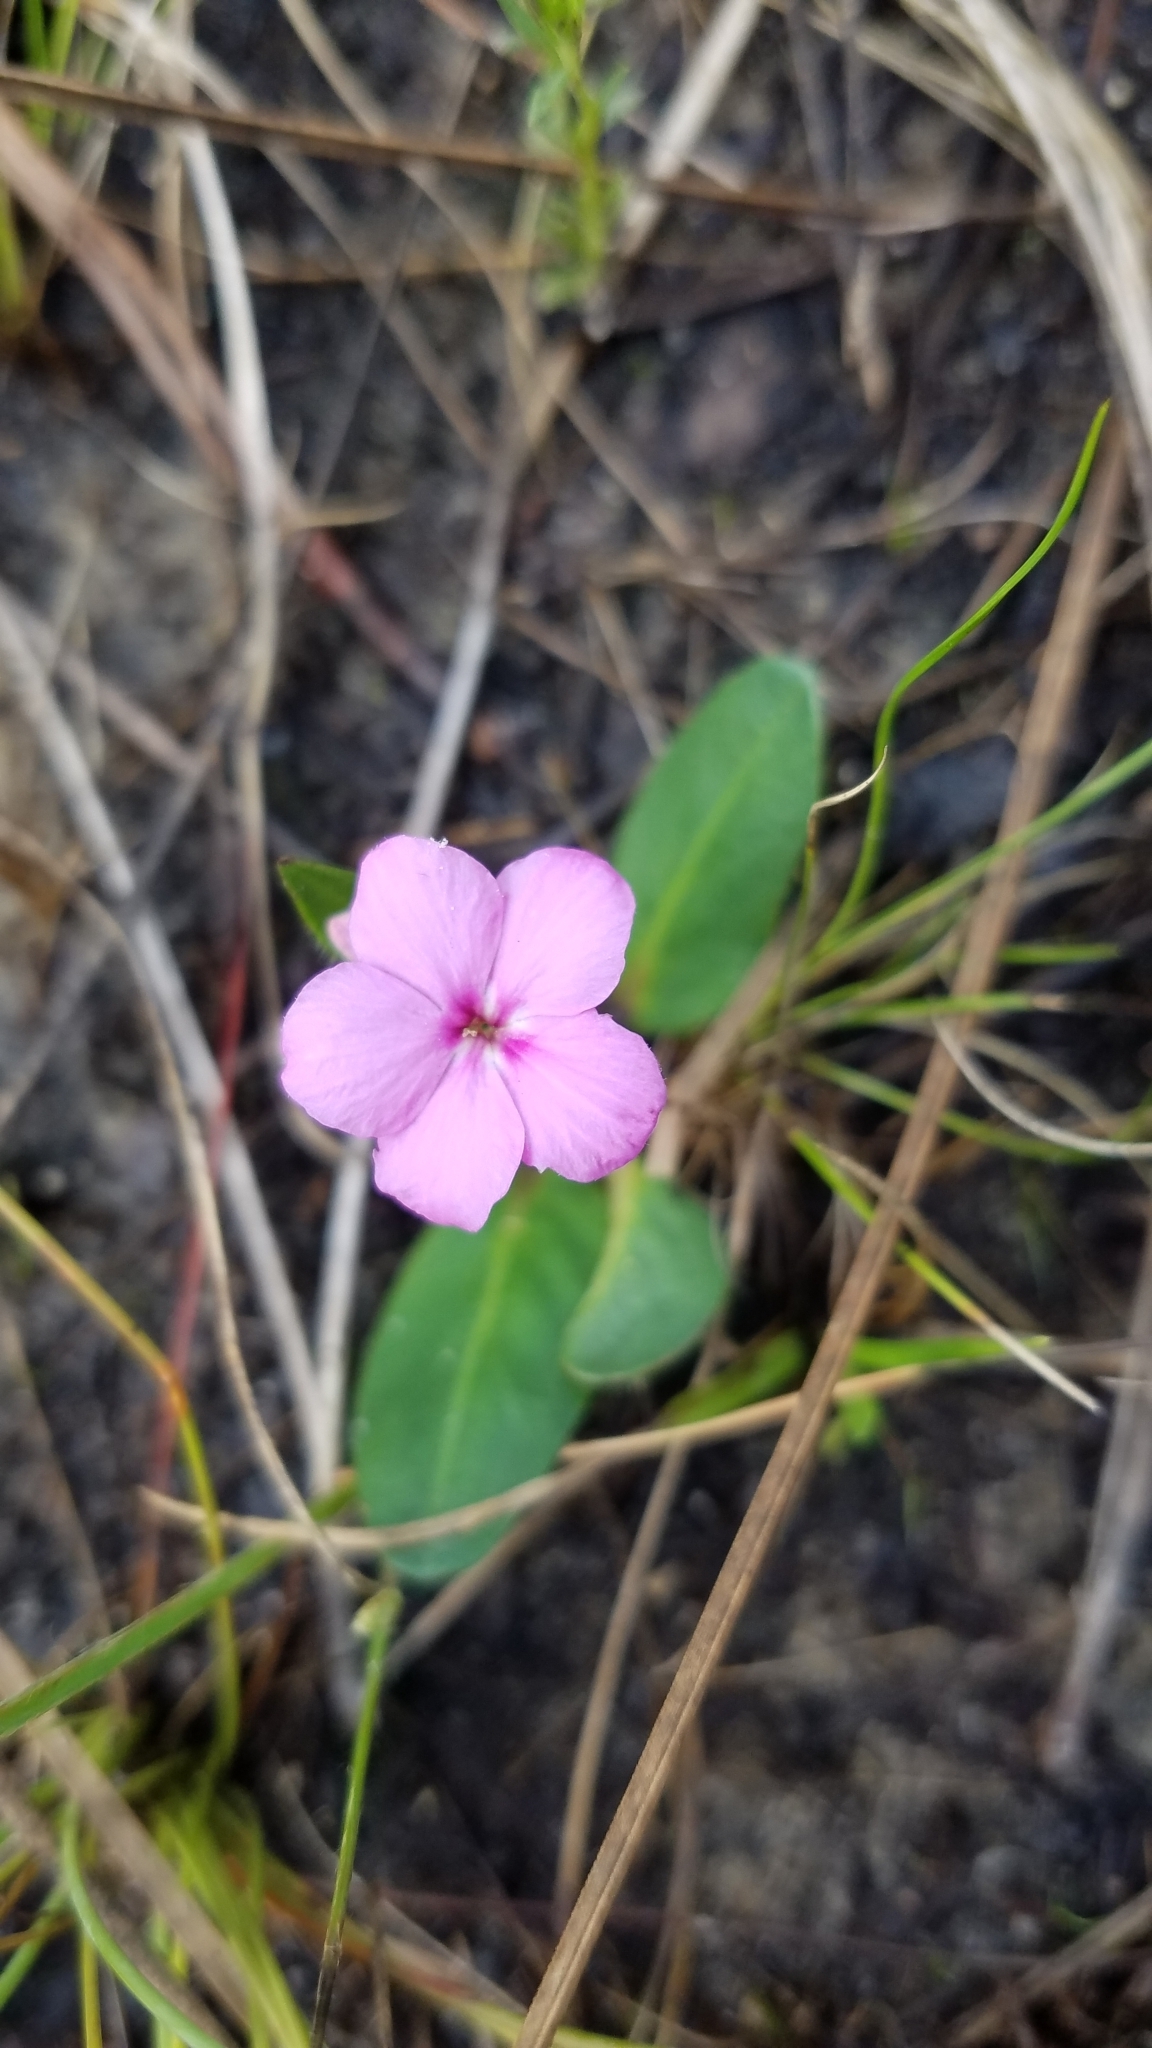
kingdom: Plantae
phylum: Tracheophyta
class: Magnoliopsida
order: Lamiales
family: Acanthaceae
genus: Stenandrium
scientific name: Stenandrium dulce
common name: Pinklet
